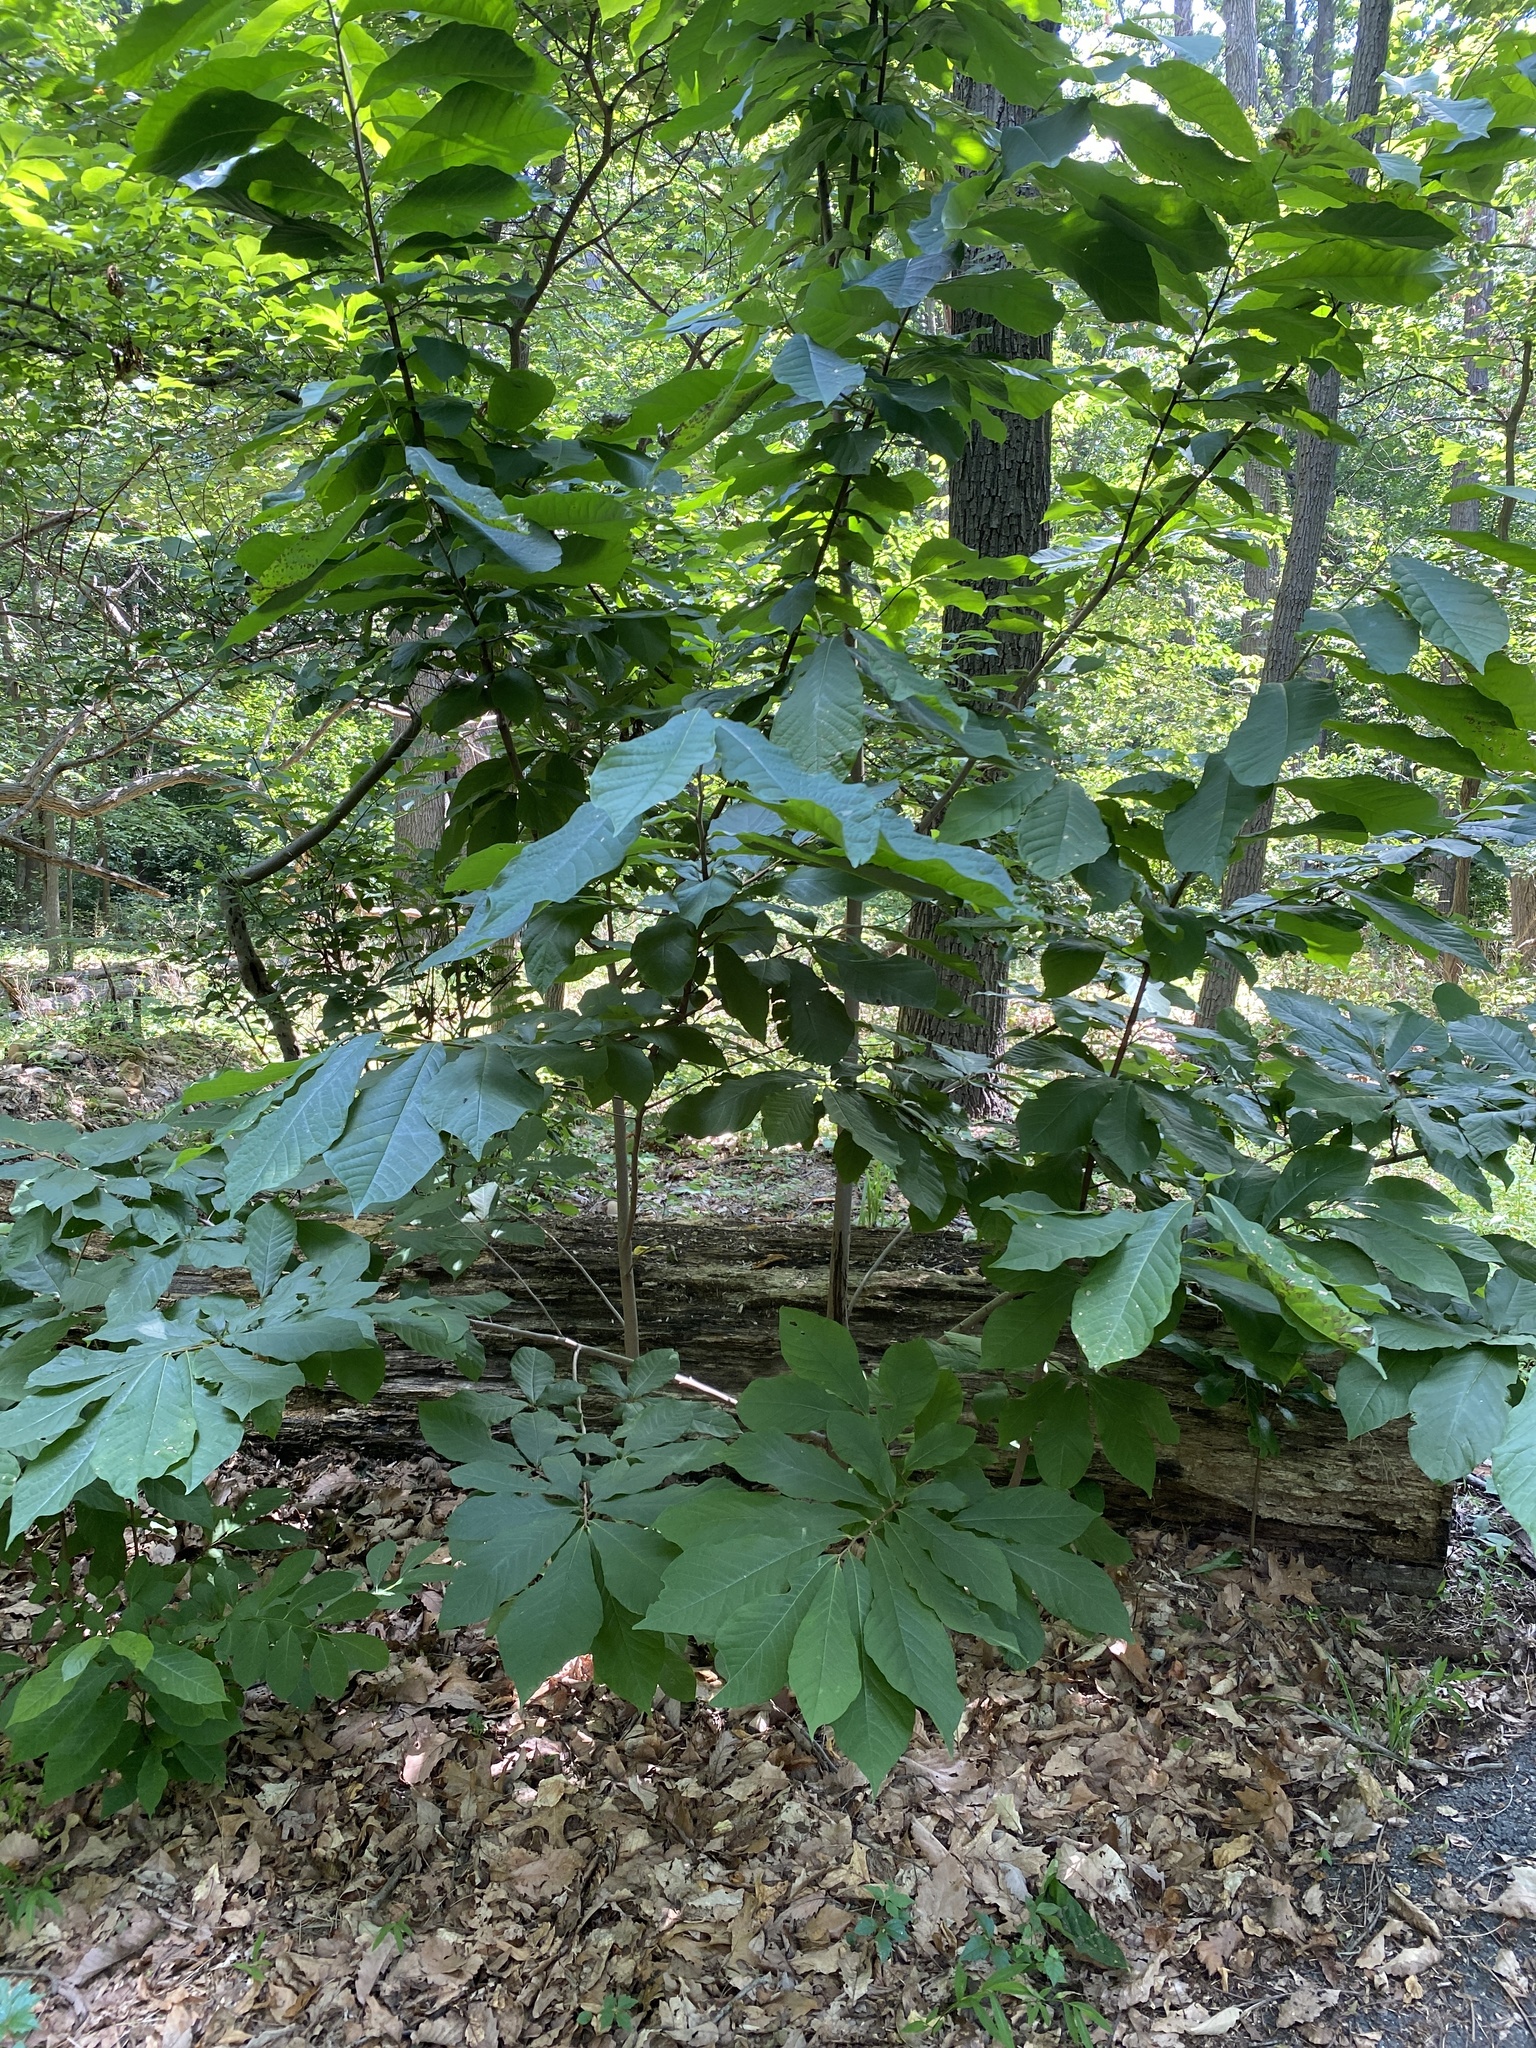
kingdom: Plantae
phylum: Tracheophyta
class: Magnoliopsida
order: Magnoliales
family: Annonaceae
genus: Asimina
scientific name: Asimina triloba
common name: Dog-banana
